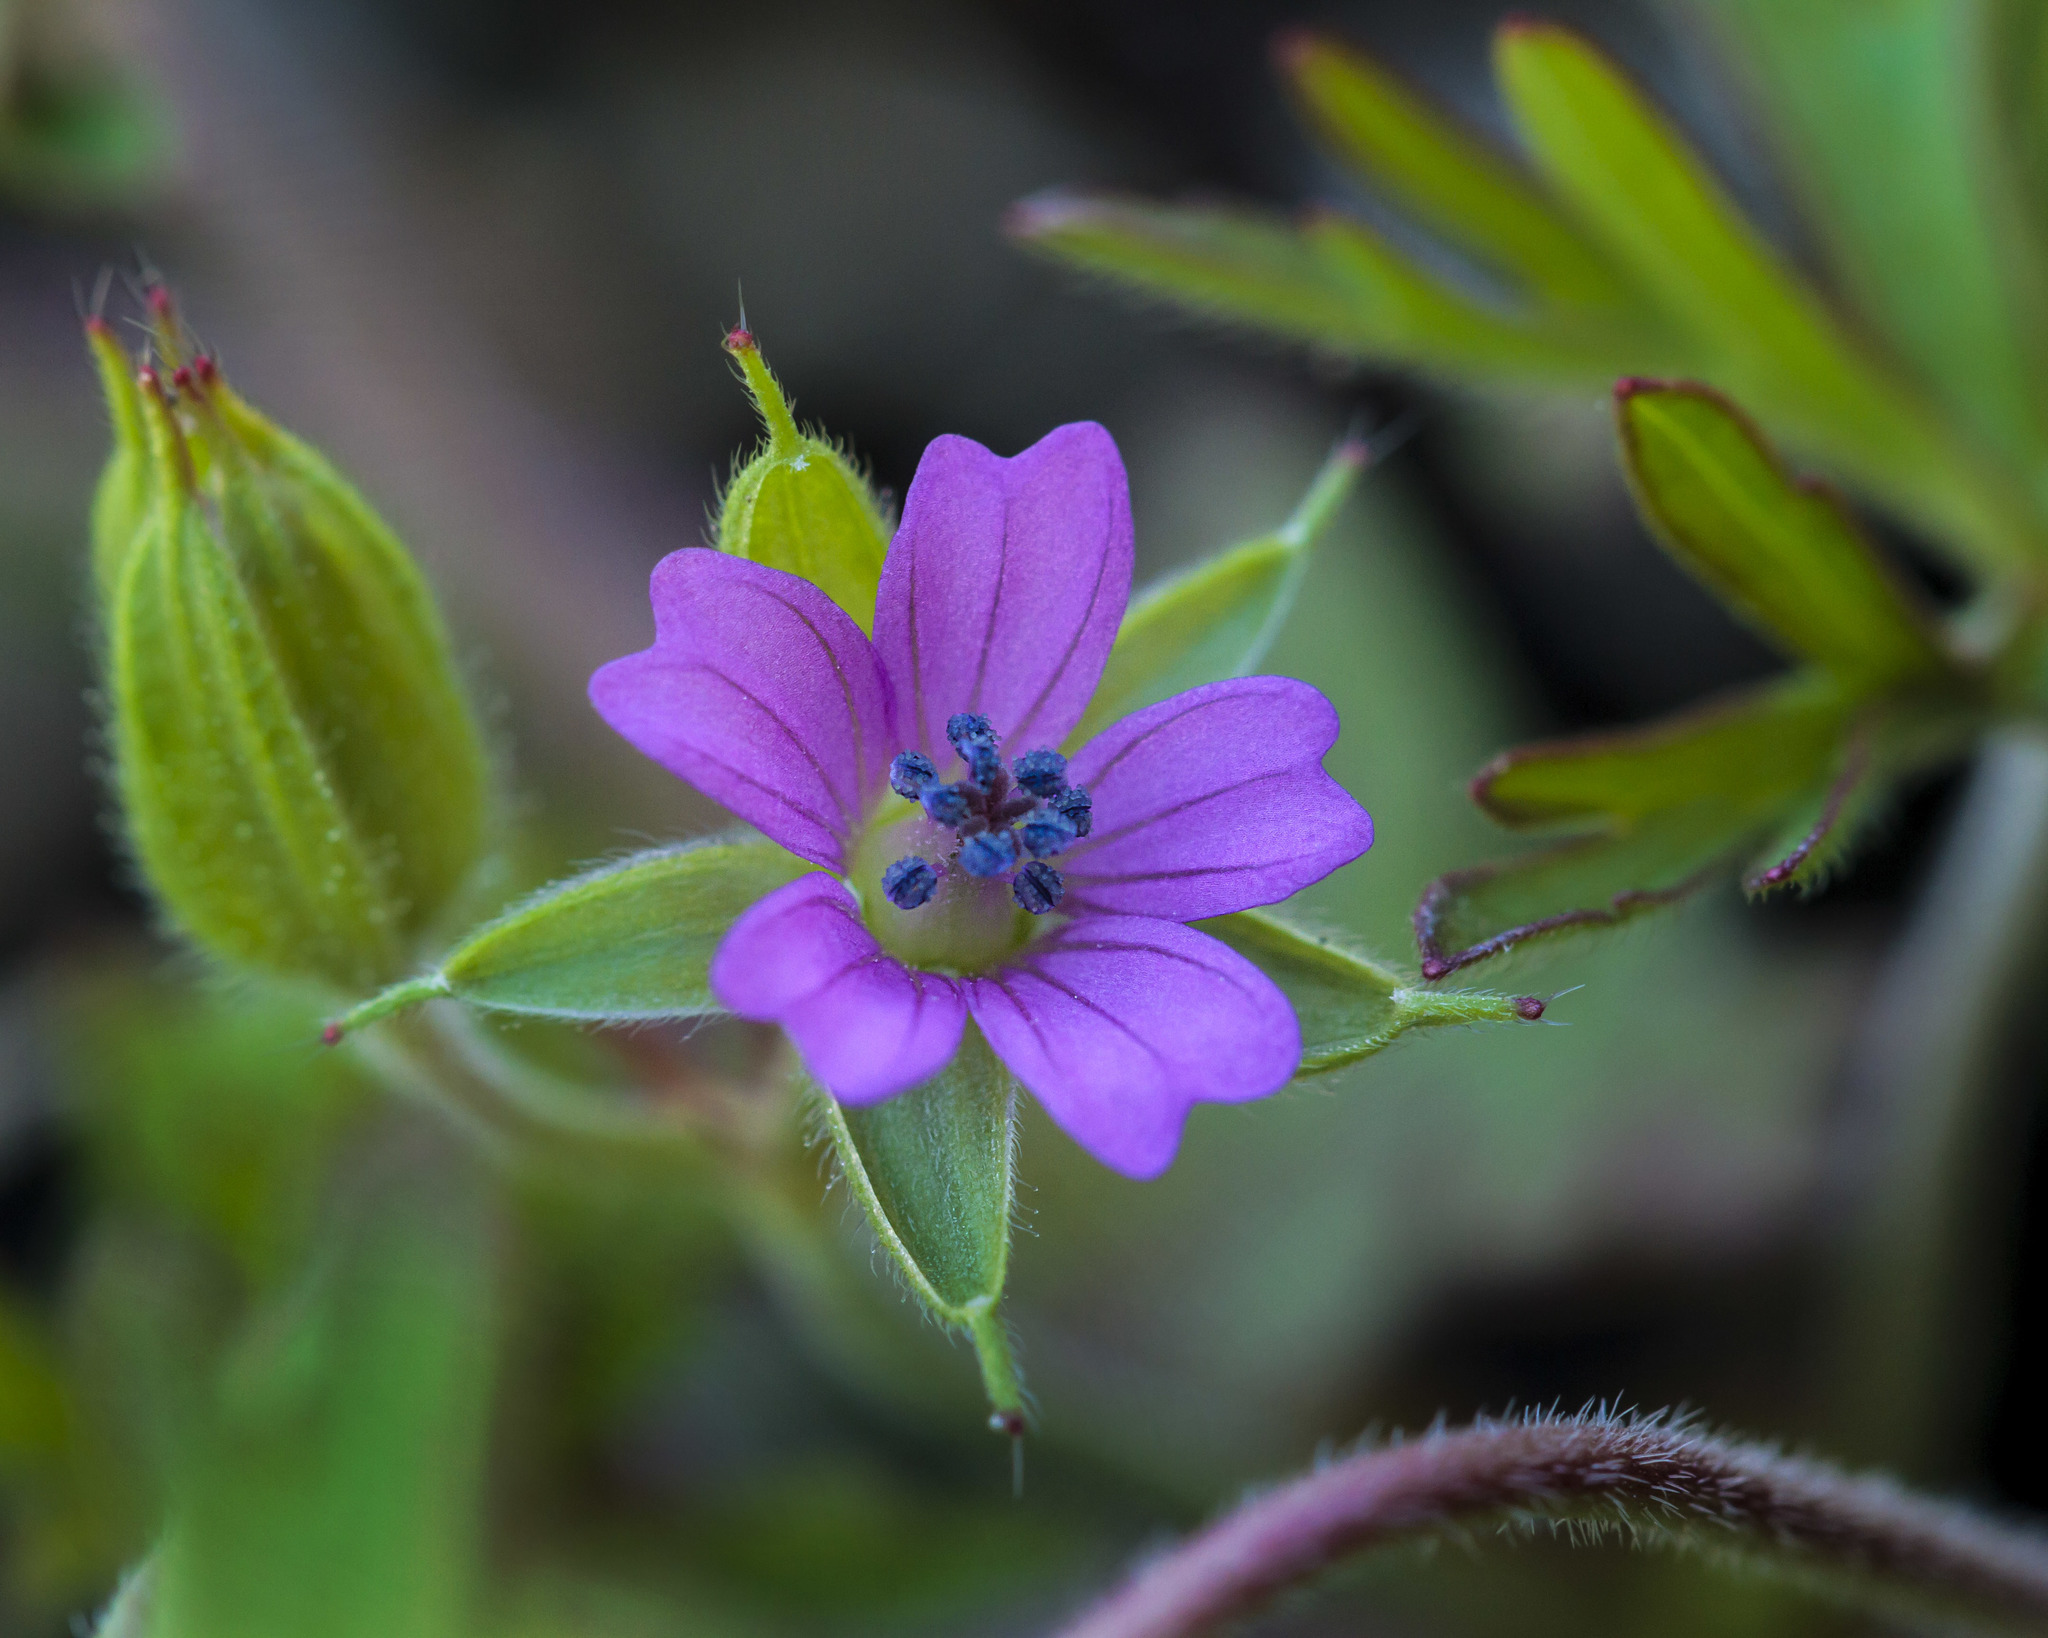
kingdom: Plantae
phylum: Tracheophyta
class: Magnoliopsida
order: Geraniales
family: Geraniaceae
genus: Geranium
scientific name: Geranium dissectum
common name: Cut-leaved crane's-bill
